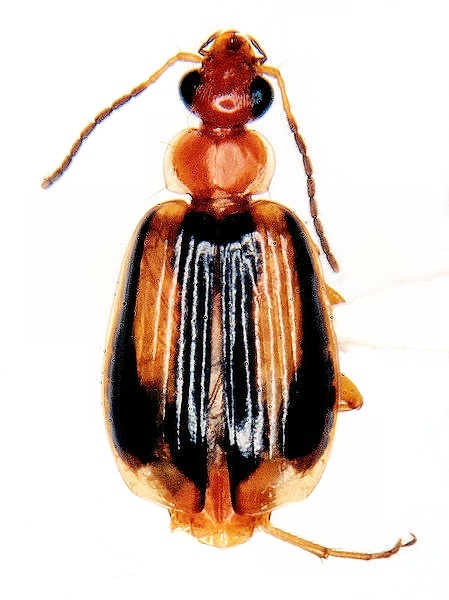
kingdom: Animalia
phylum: Arthropoda
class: Insecta
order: Coleoptera
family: Carabidae
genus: Lebia
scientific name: Lebia solea
